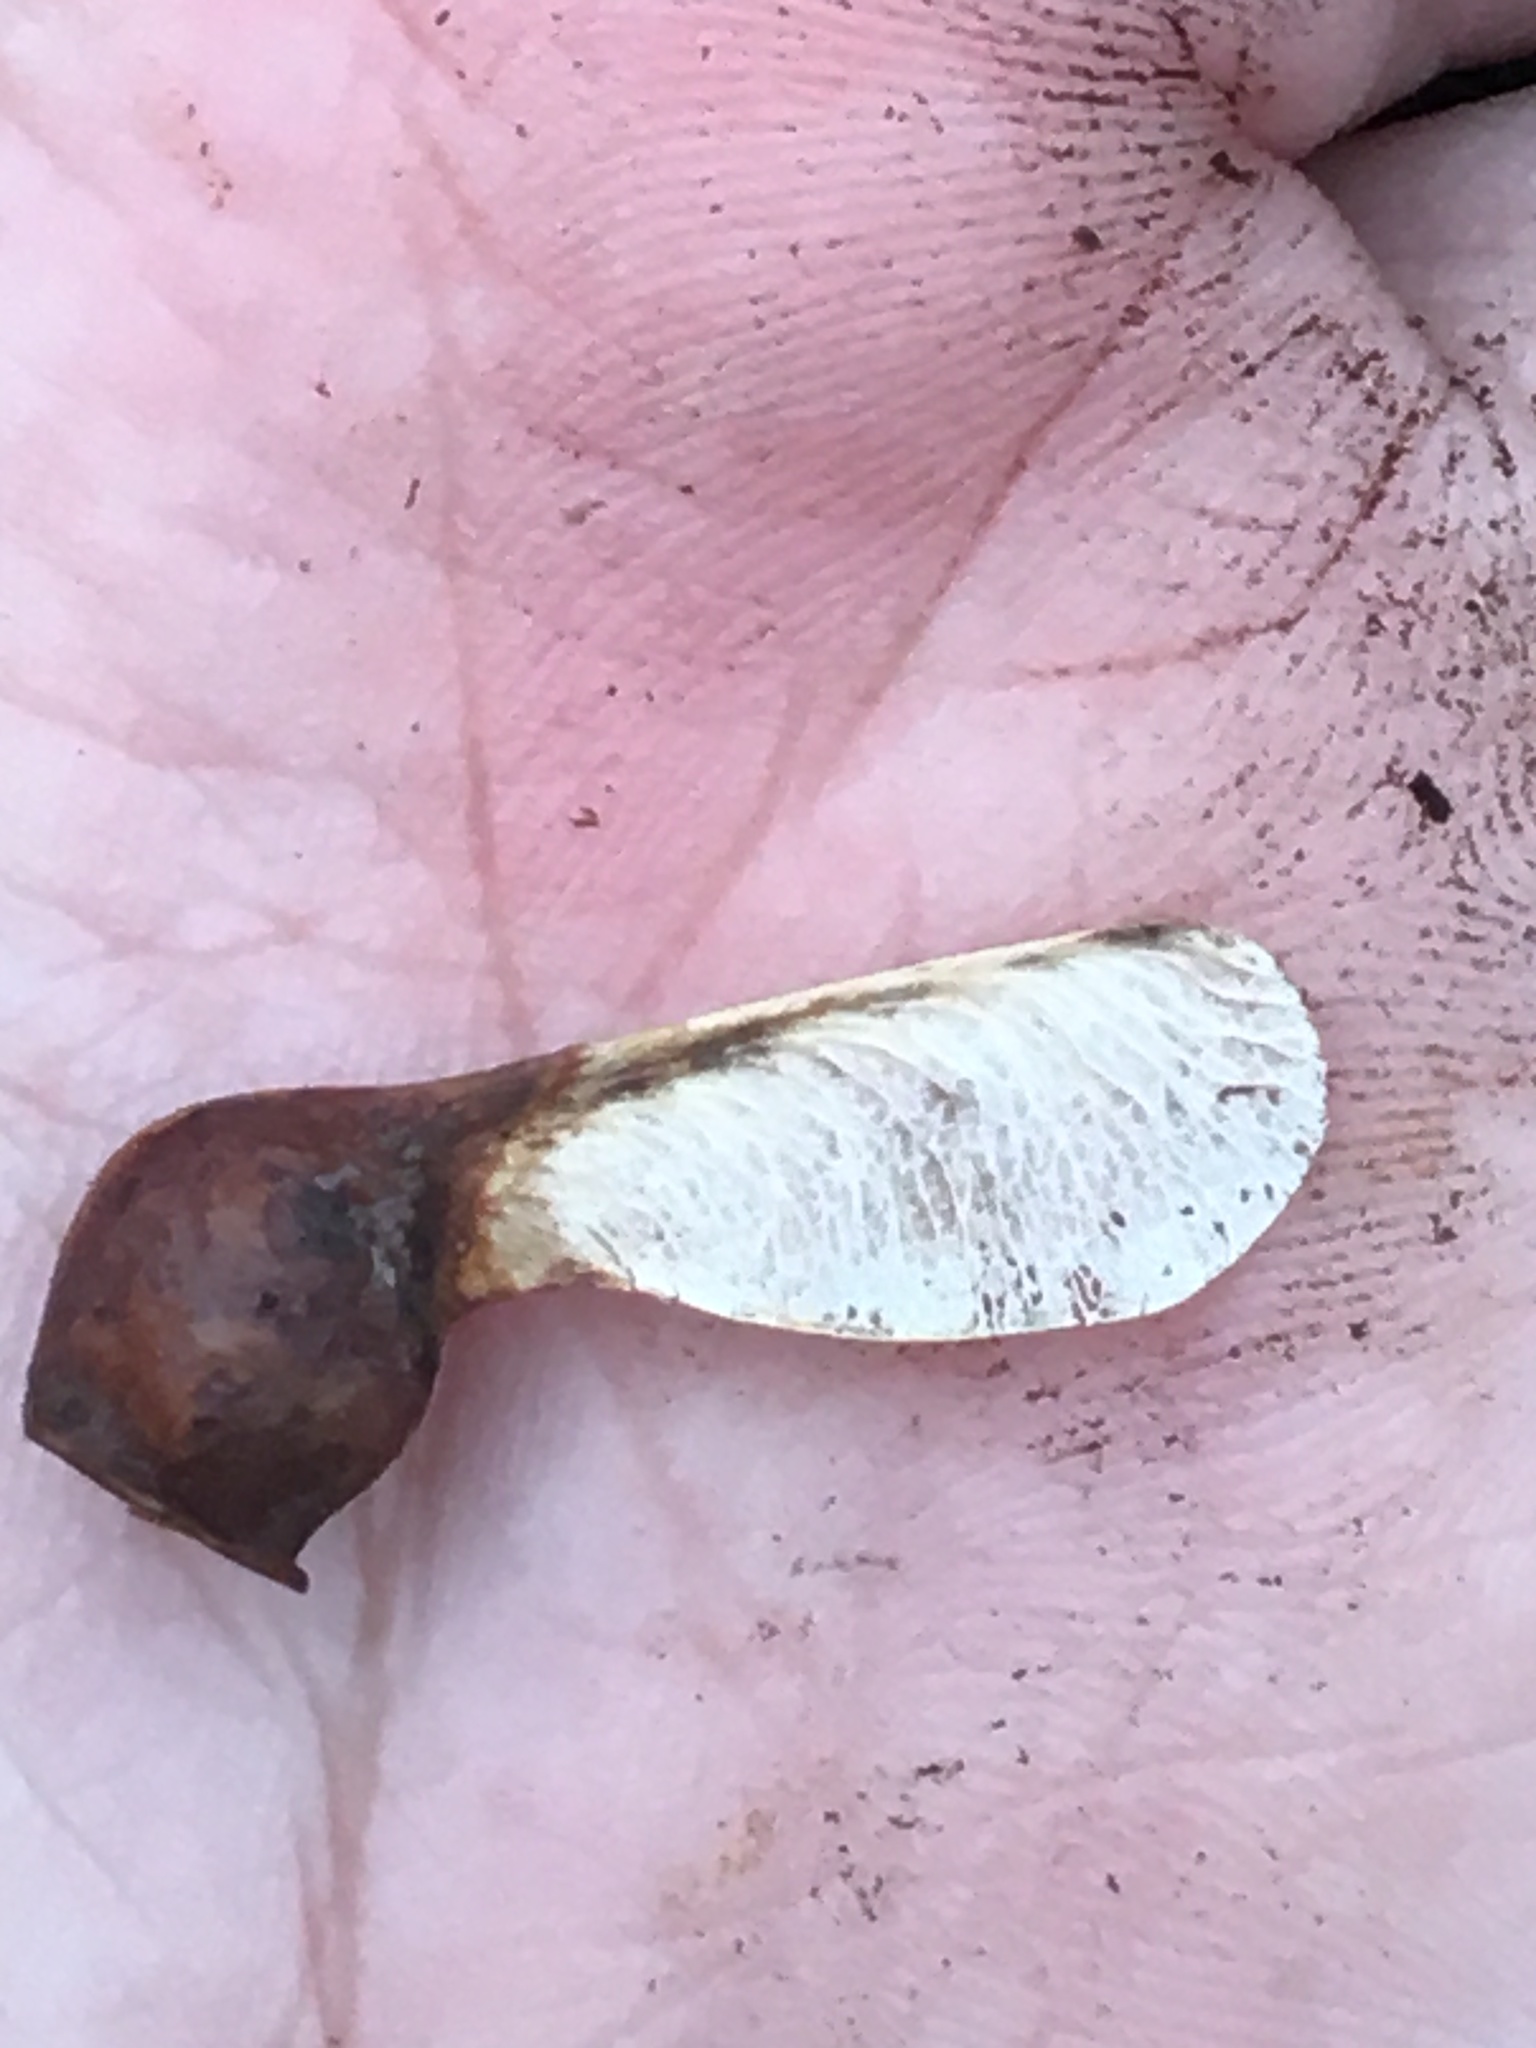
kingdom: Plantae
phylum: Tracheophyta
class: Magnoliopsida
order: Sapindales
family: Sapindaceae
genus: Acer
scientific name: Acer saccharum
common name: Sugar maple
